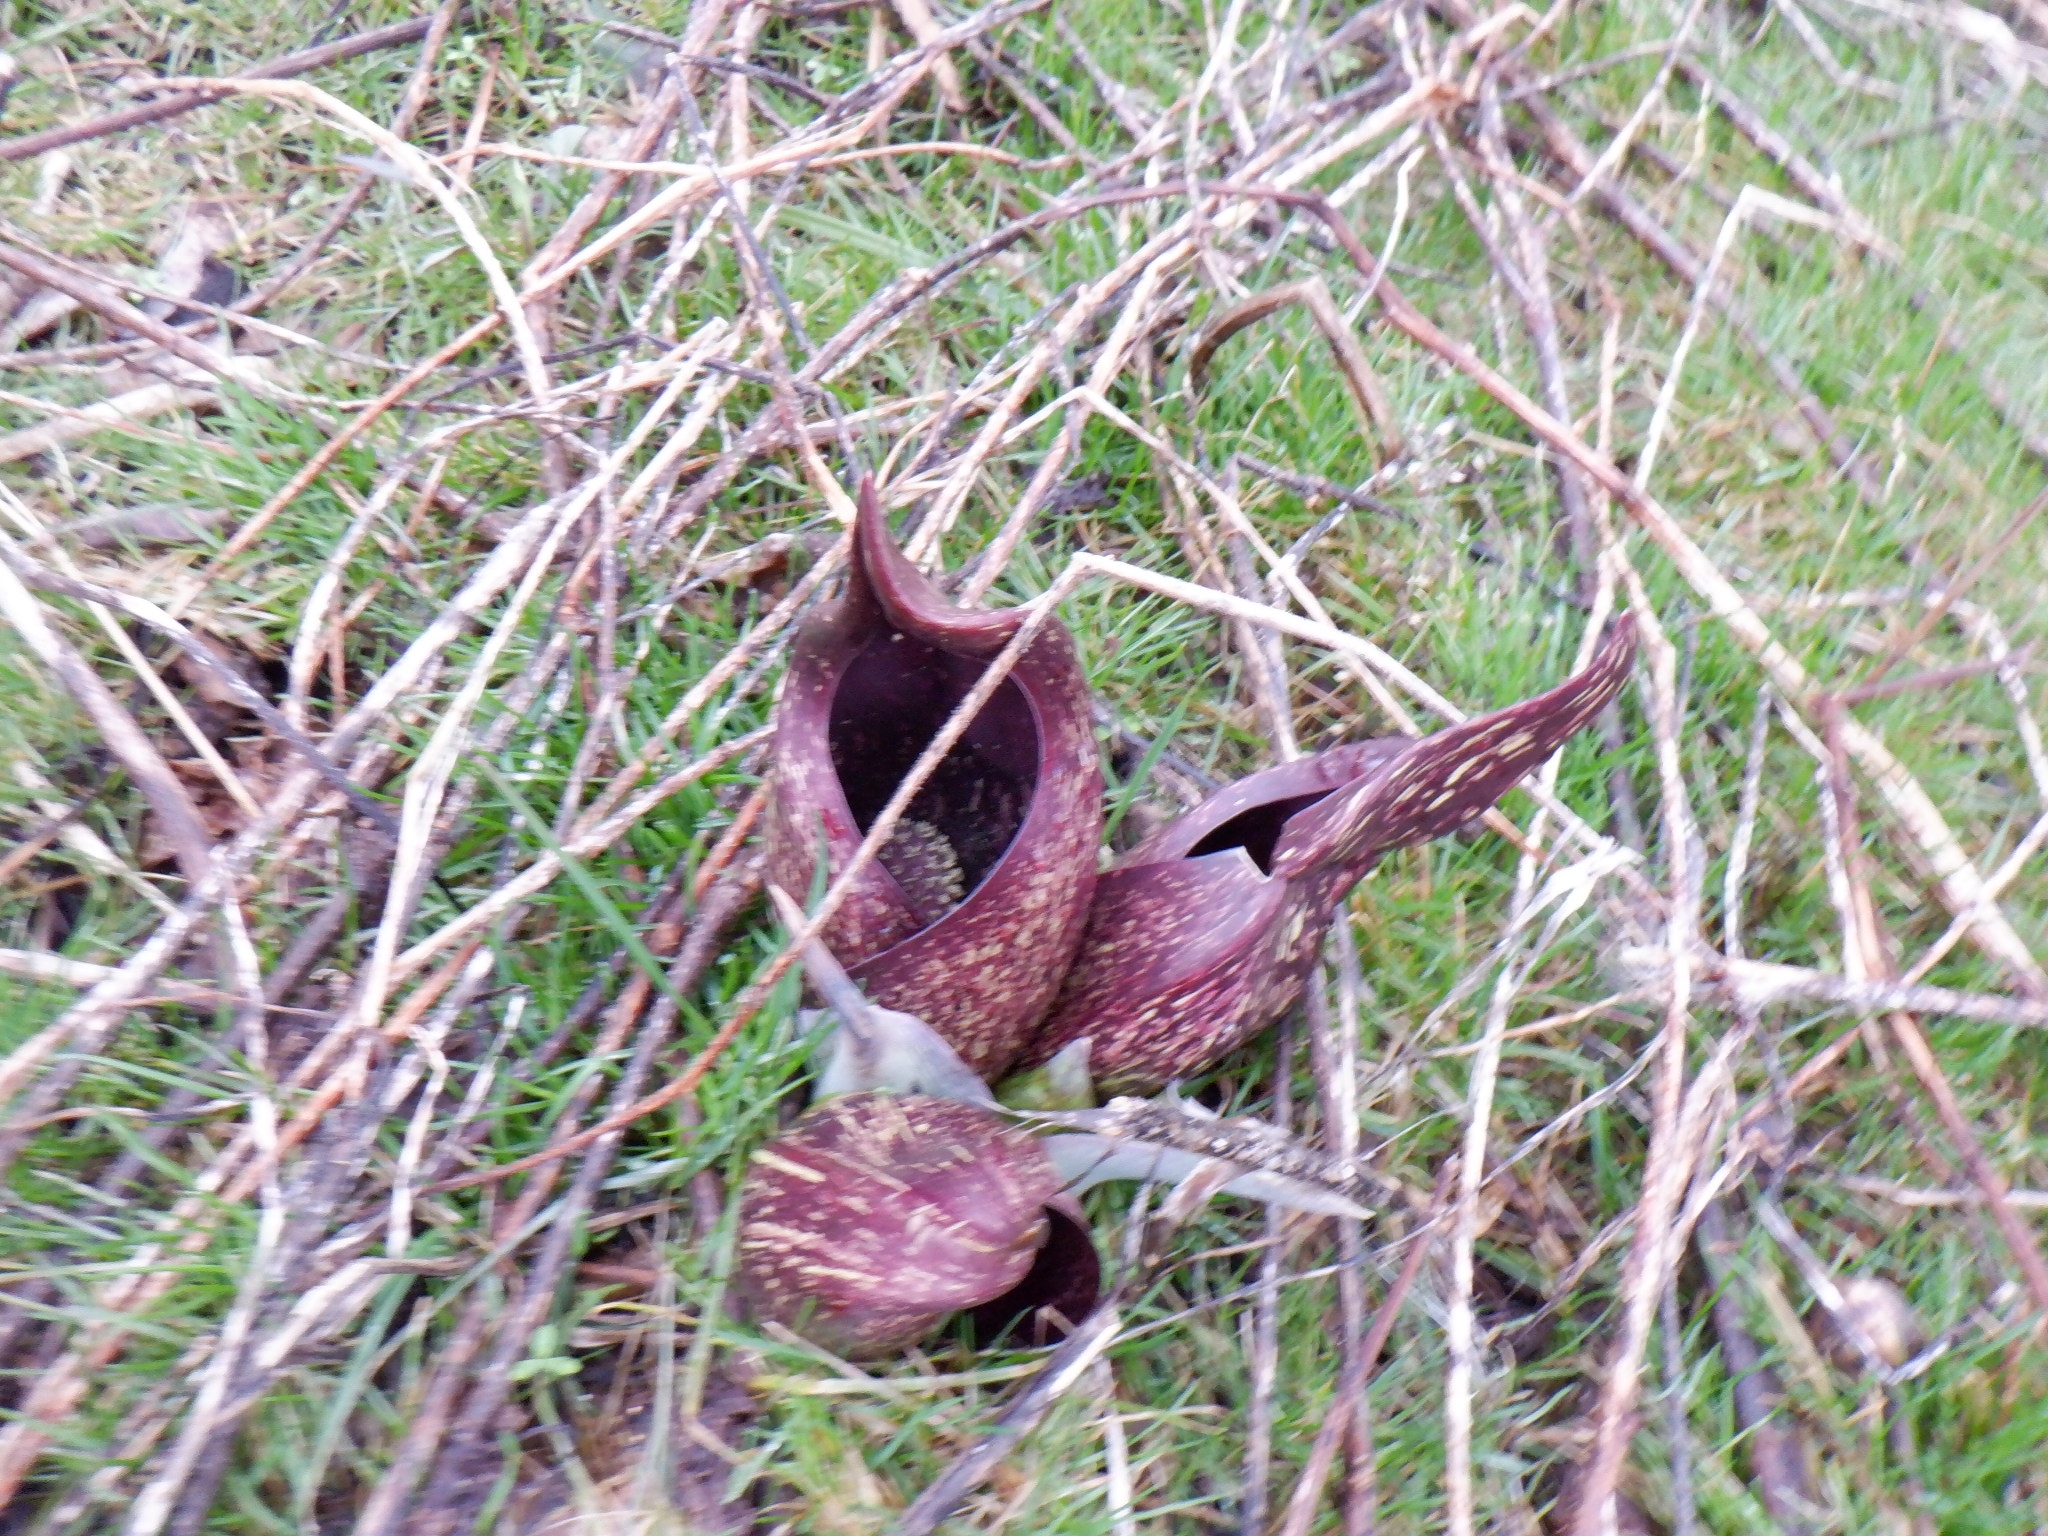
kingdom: Plantae
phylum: Tracheophyta
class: Liliopsida
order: Alismatales
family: Araceae
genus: Symplocarpus
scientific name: Symplocarpus foetidus
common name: Eastern skunk cabbage
